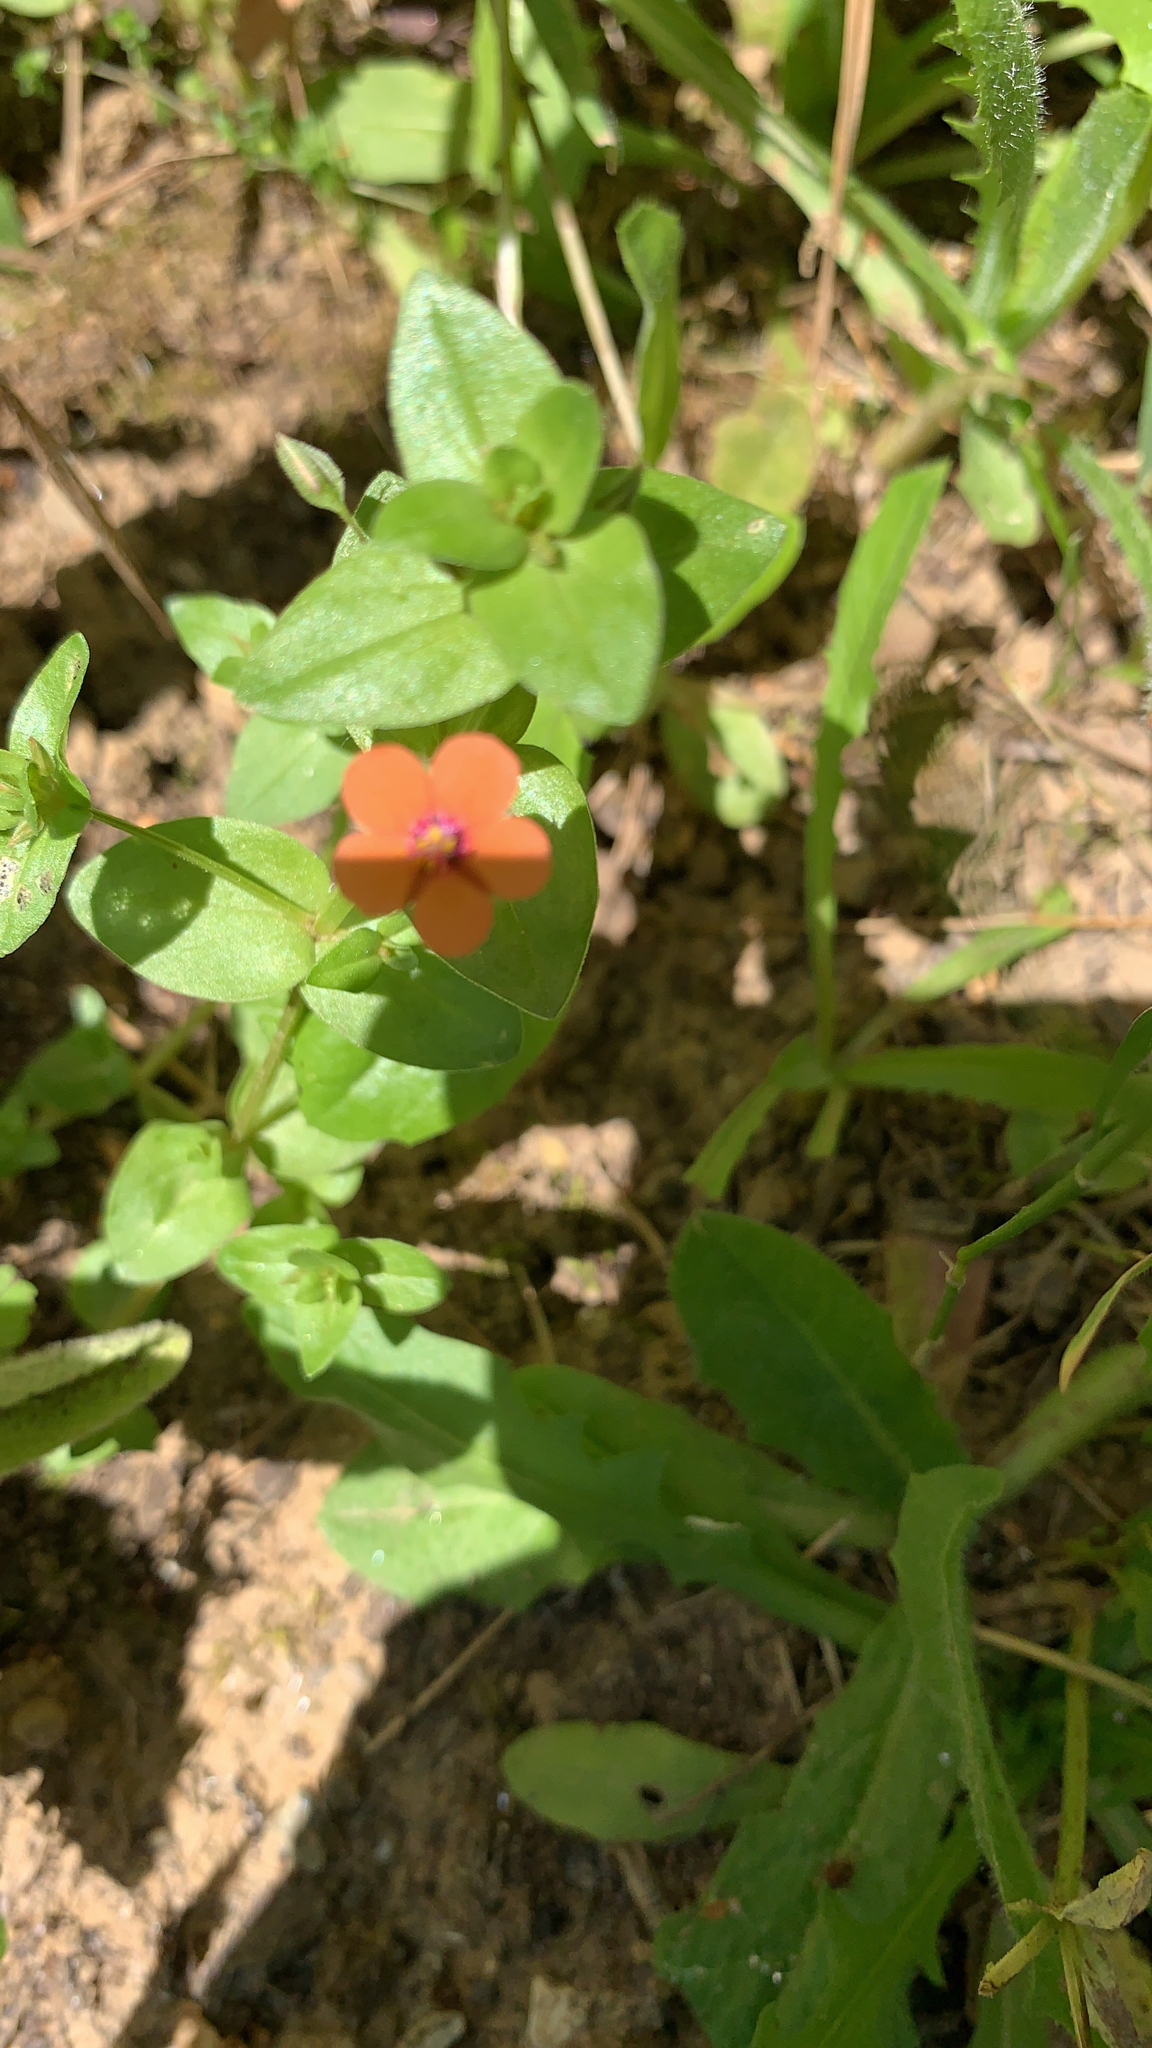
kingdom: Plantae
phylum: Tracheophyta
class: Magnoliopsida
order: Ericales
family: Primulaceae
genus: Lysimachia
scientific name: Lysimachia arvensis
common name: Scarlet pimpernel
